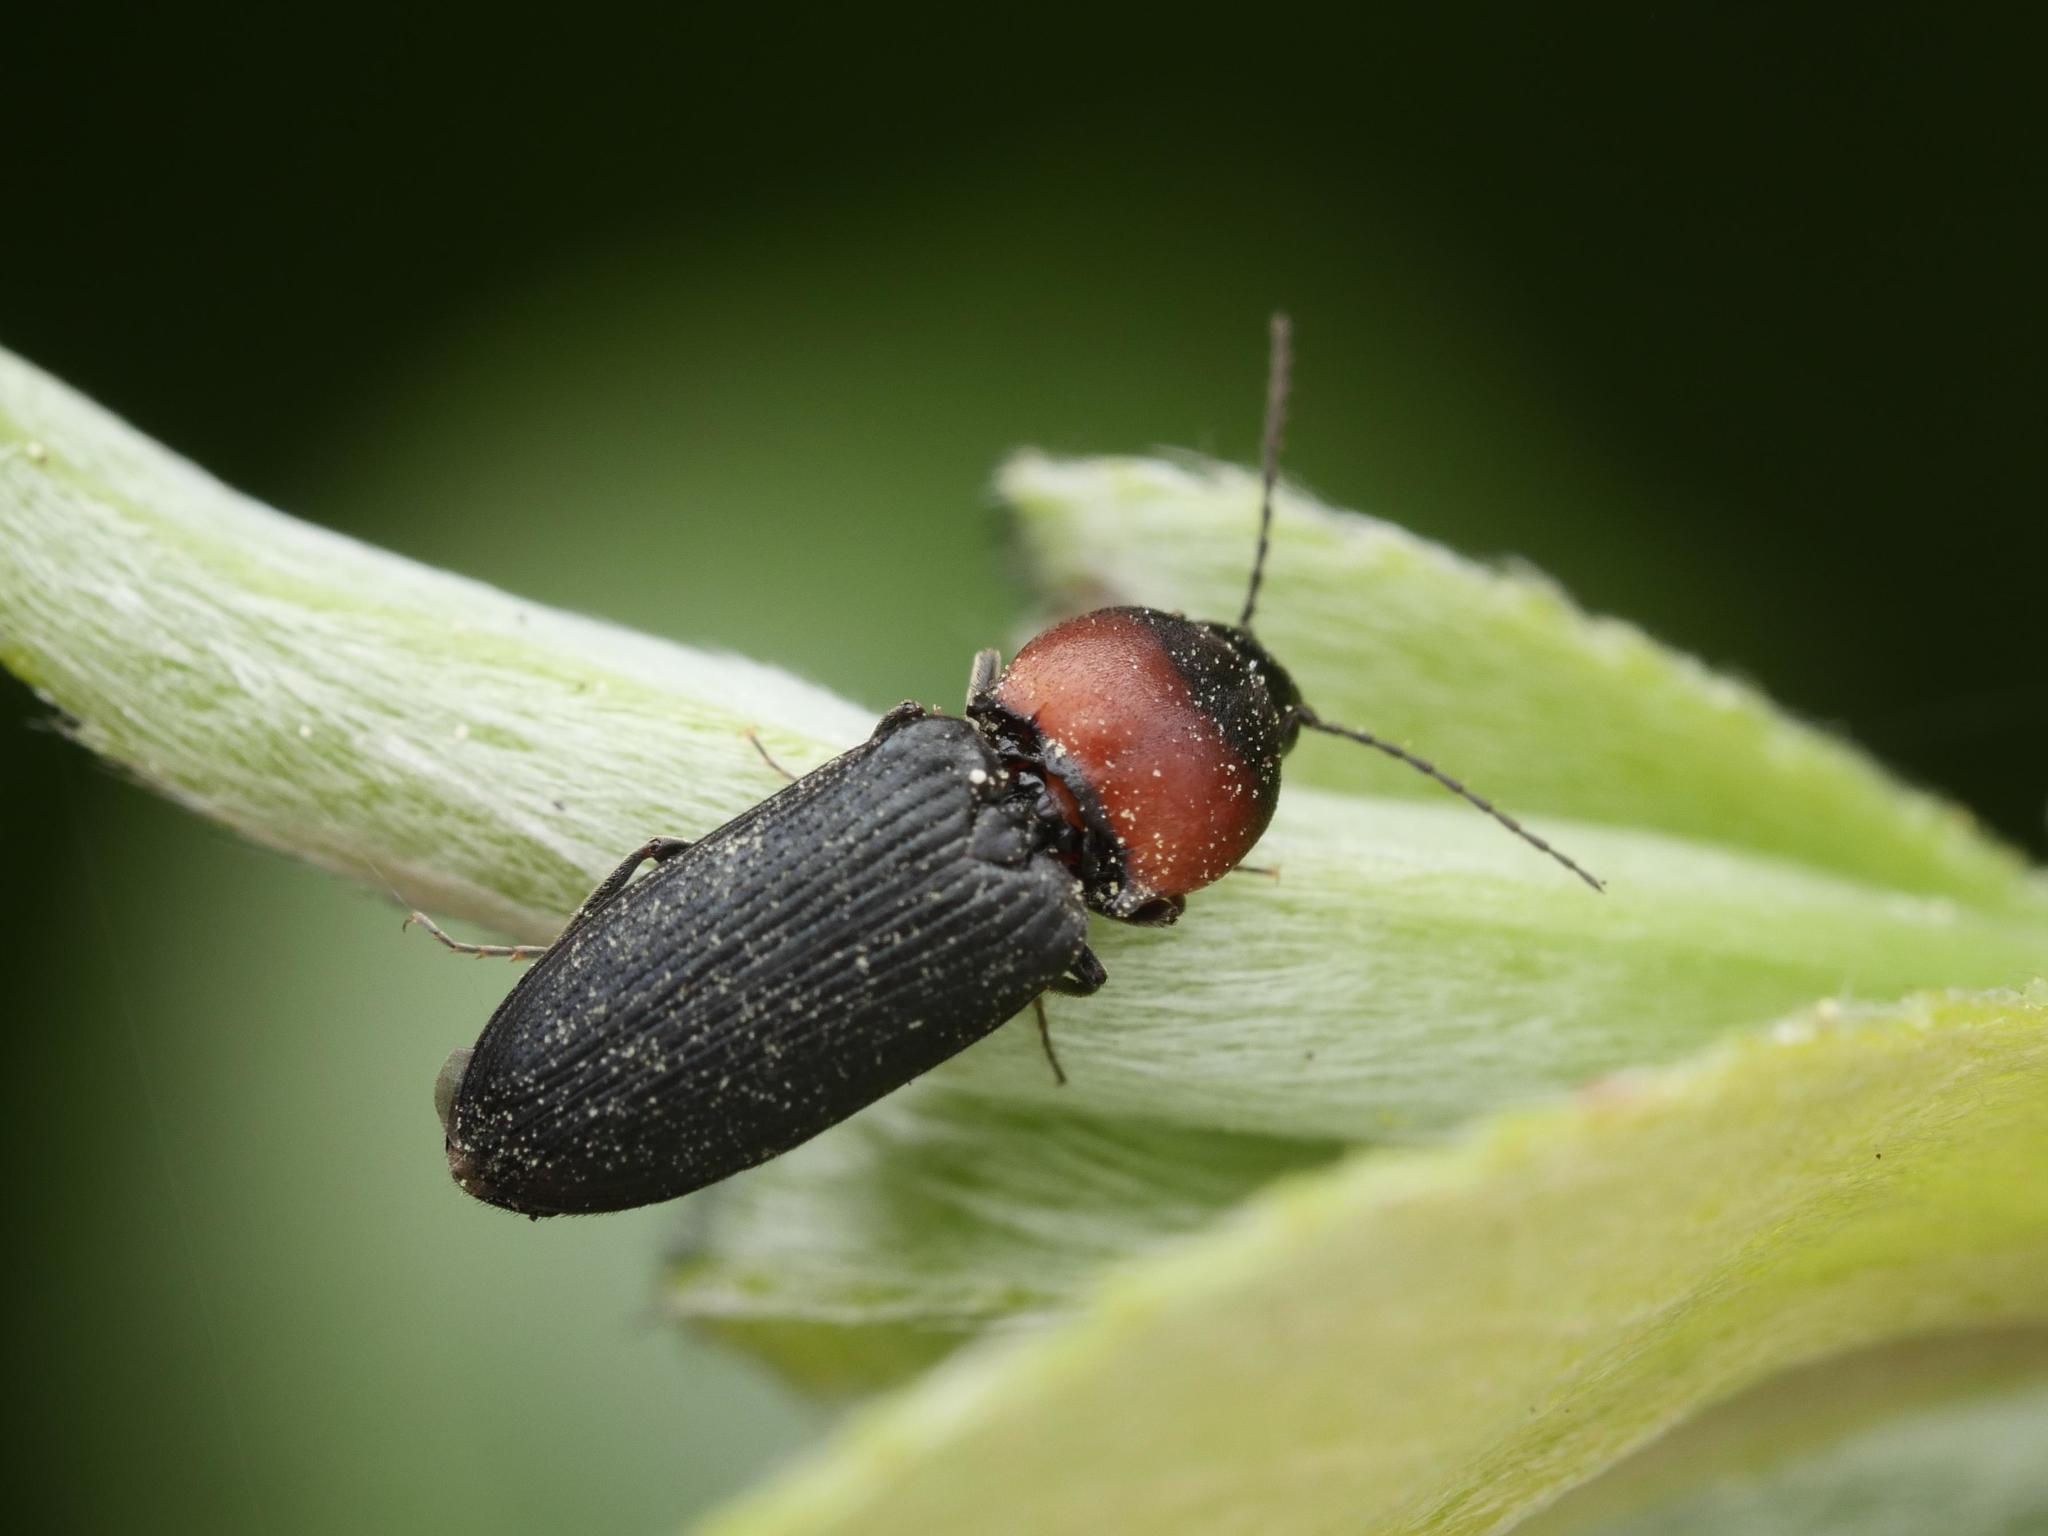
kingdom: Animalia
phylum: Arthropoda
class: Insecta
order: Coleoptera
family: Elateridae
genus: Cardiophorus
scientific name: Cardiophorus ruficollis
